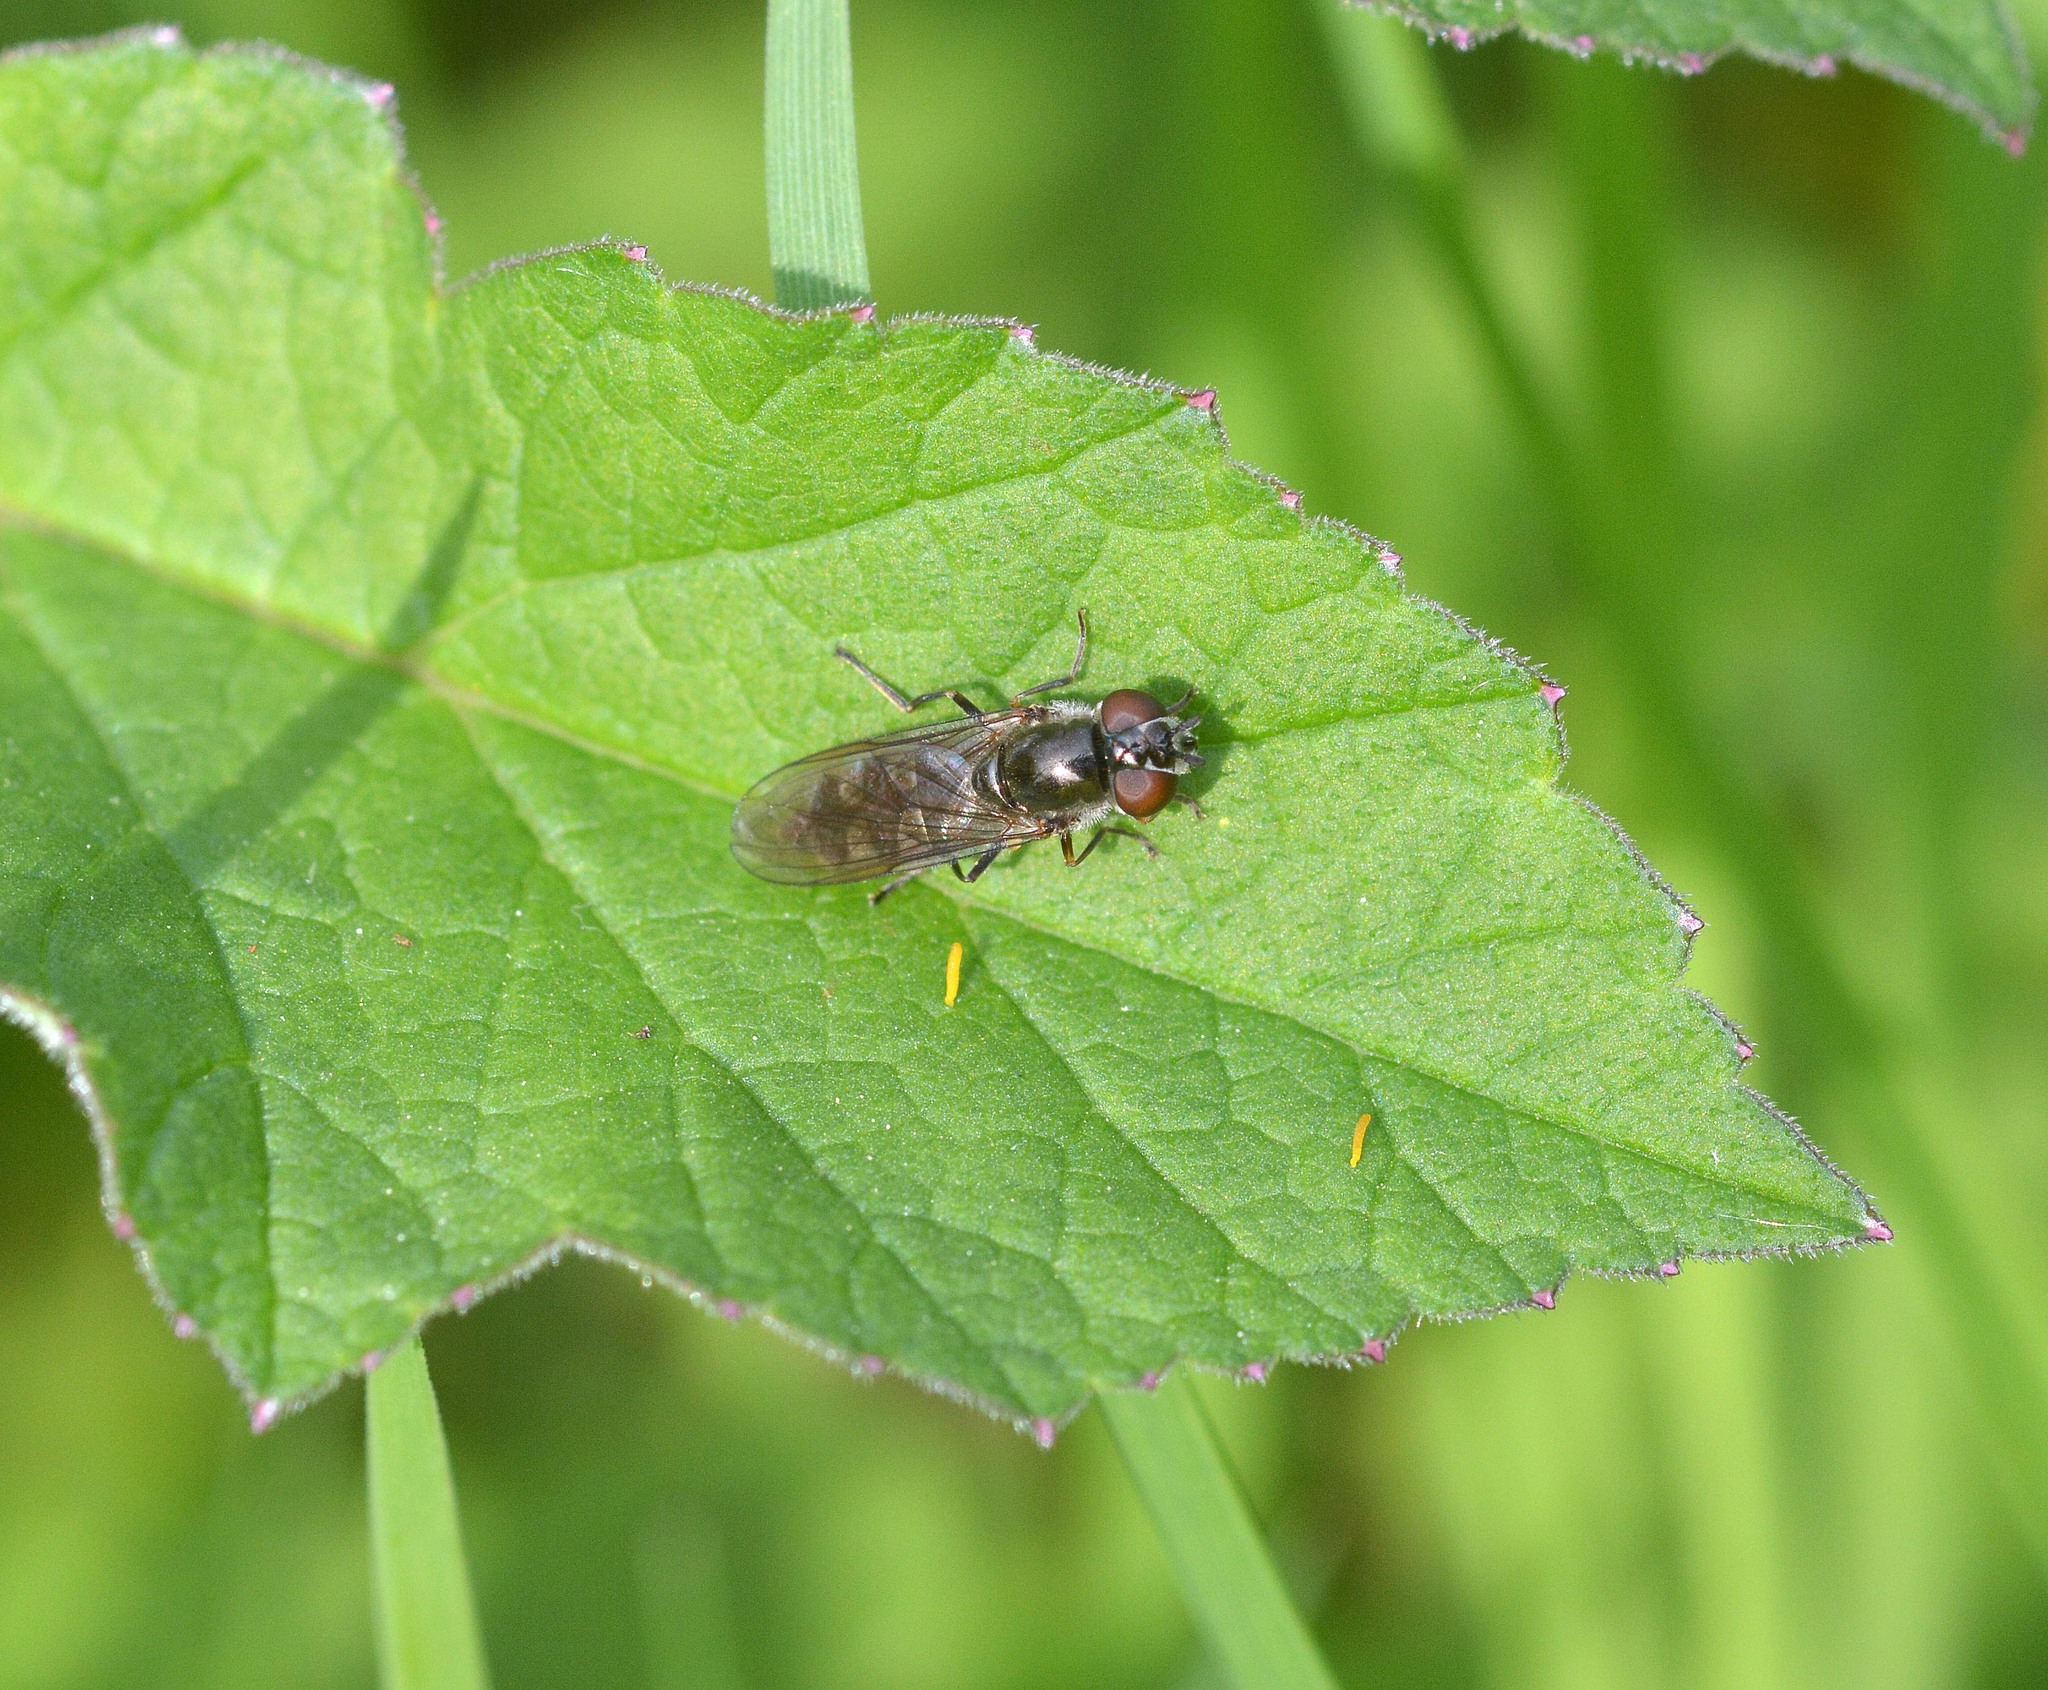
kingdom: Animalia
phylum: Arthropoda
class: Insecta
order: Diptera
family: Syrphidae
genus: Platycheirus
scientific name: Platycheirus albimanus
